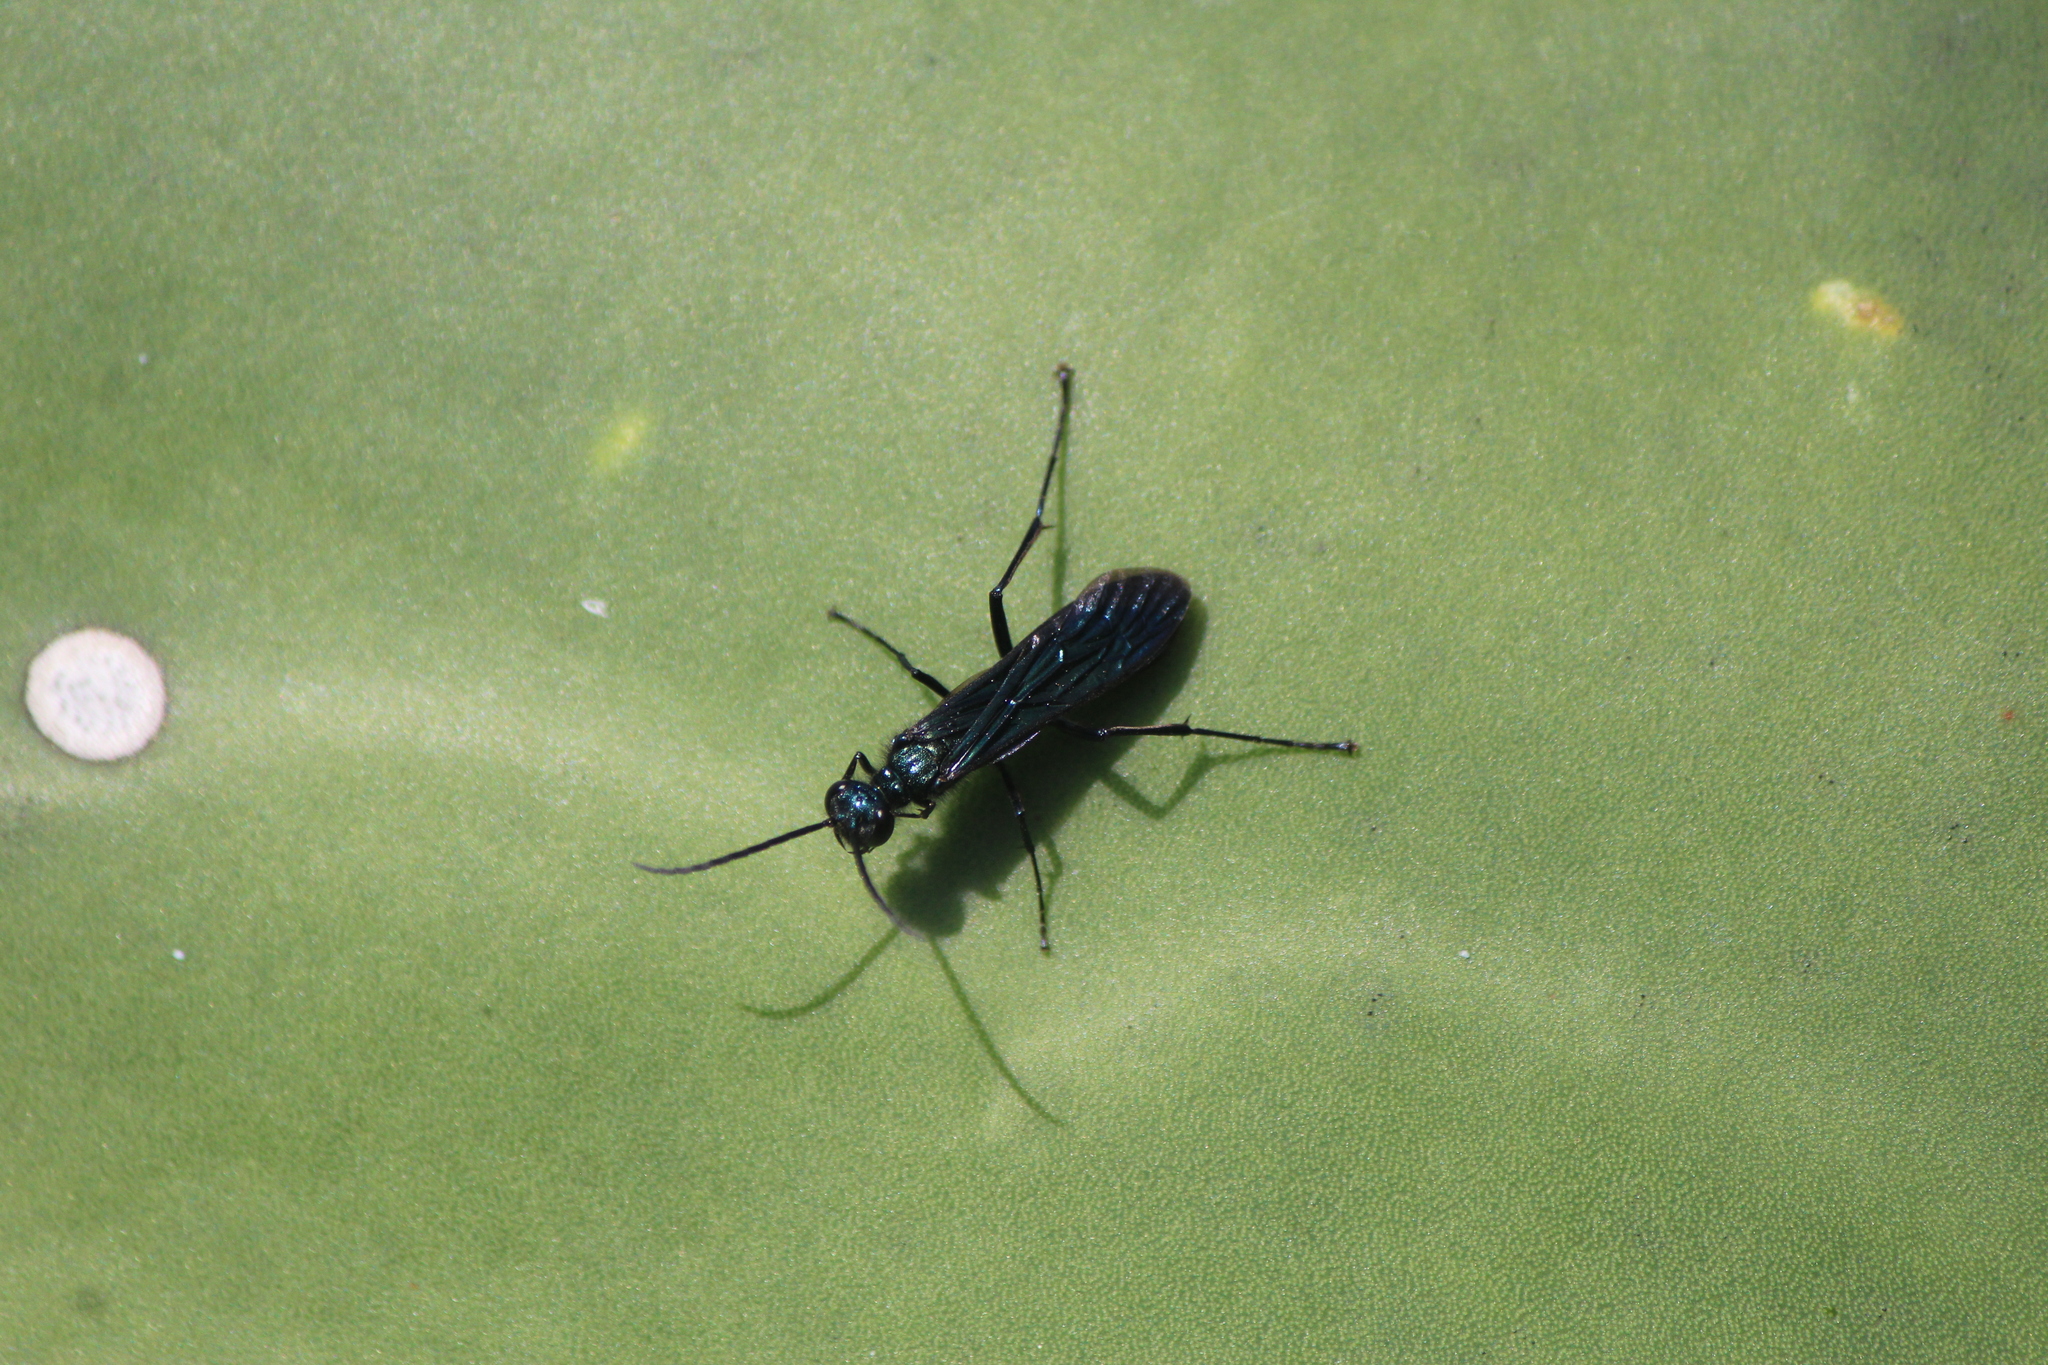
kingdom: Animalia
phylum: Arthropoda
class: Insecta
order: Hymenoptera
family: Sphecidae
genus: Chalybion
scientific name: Chalybion californicum
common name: Mud dauber
